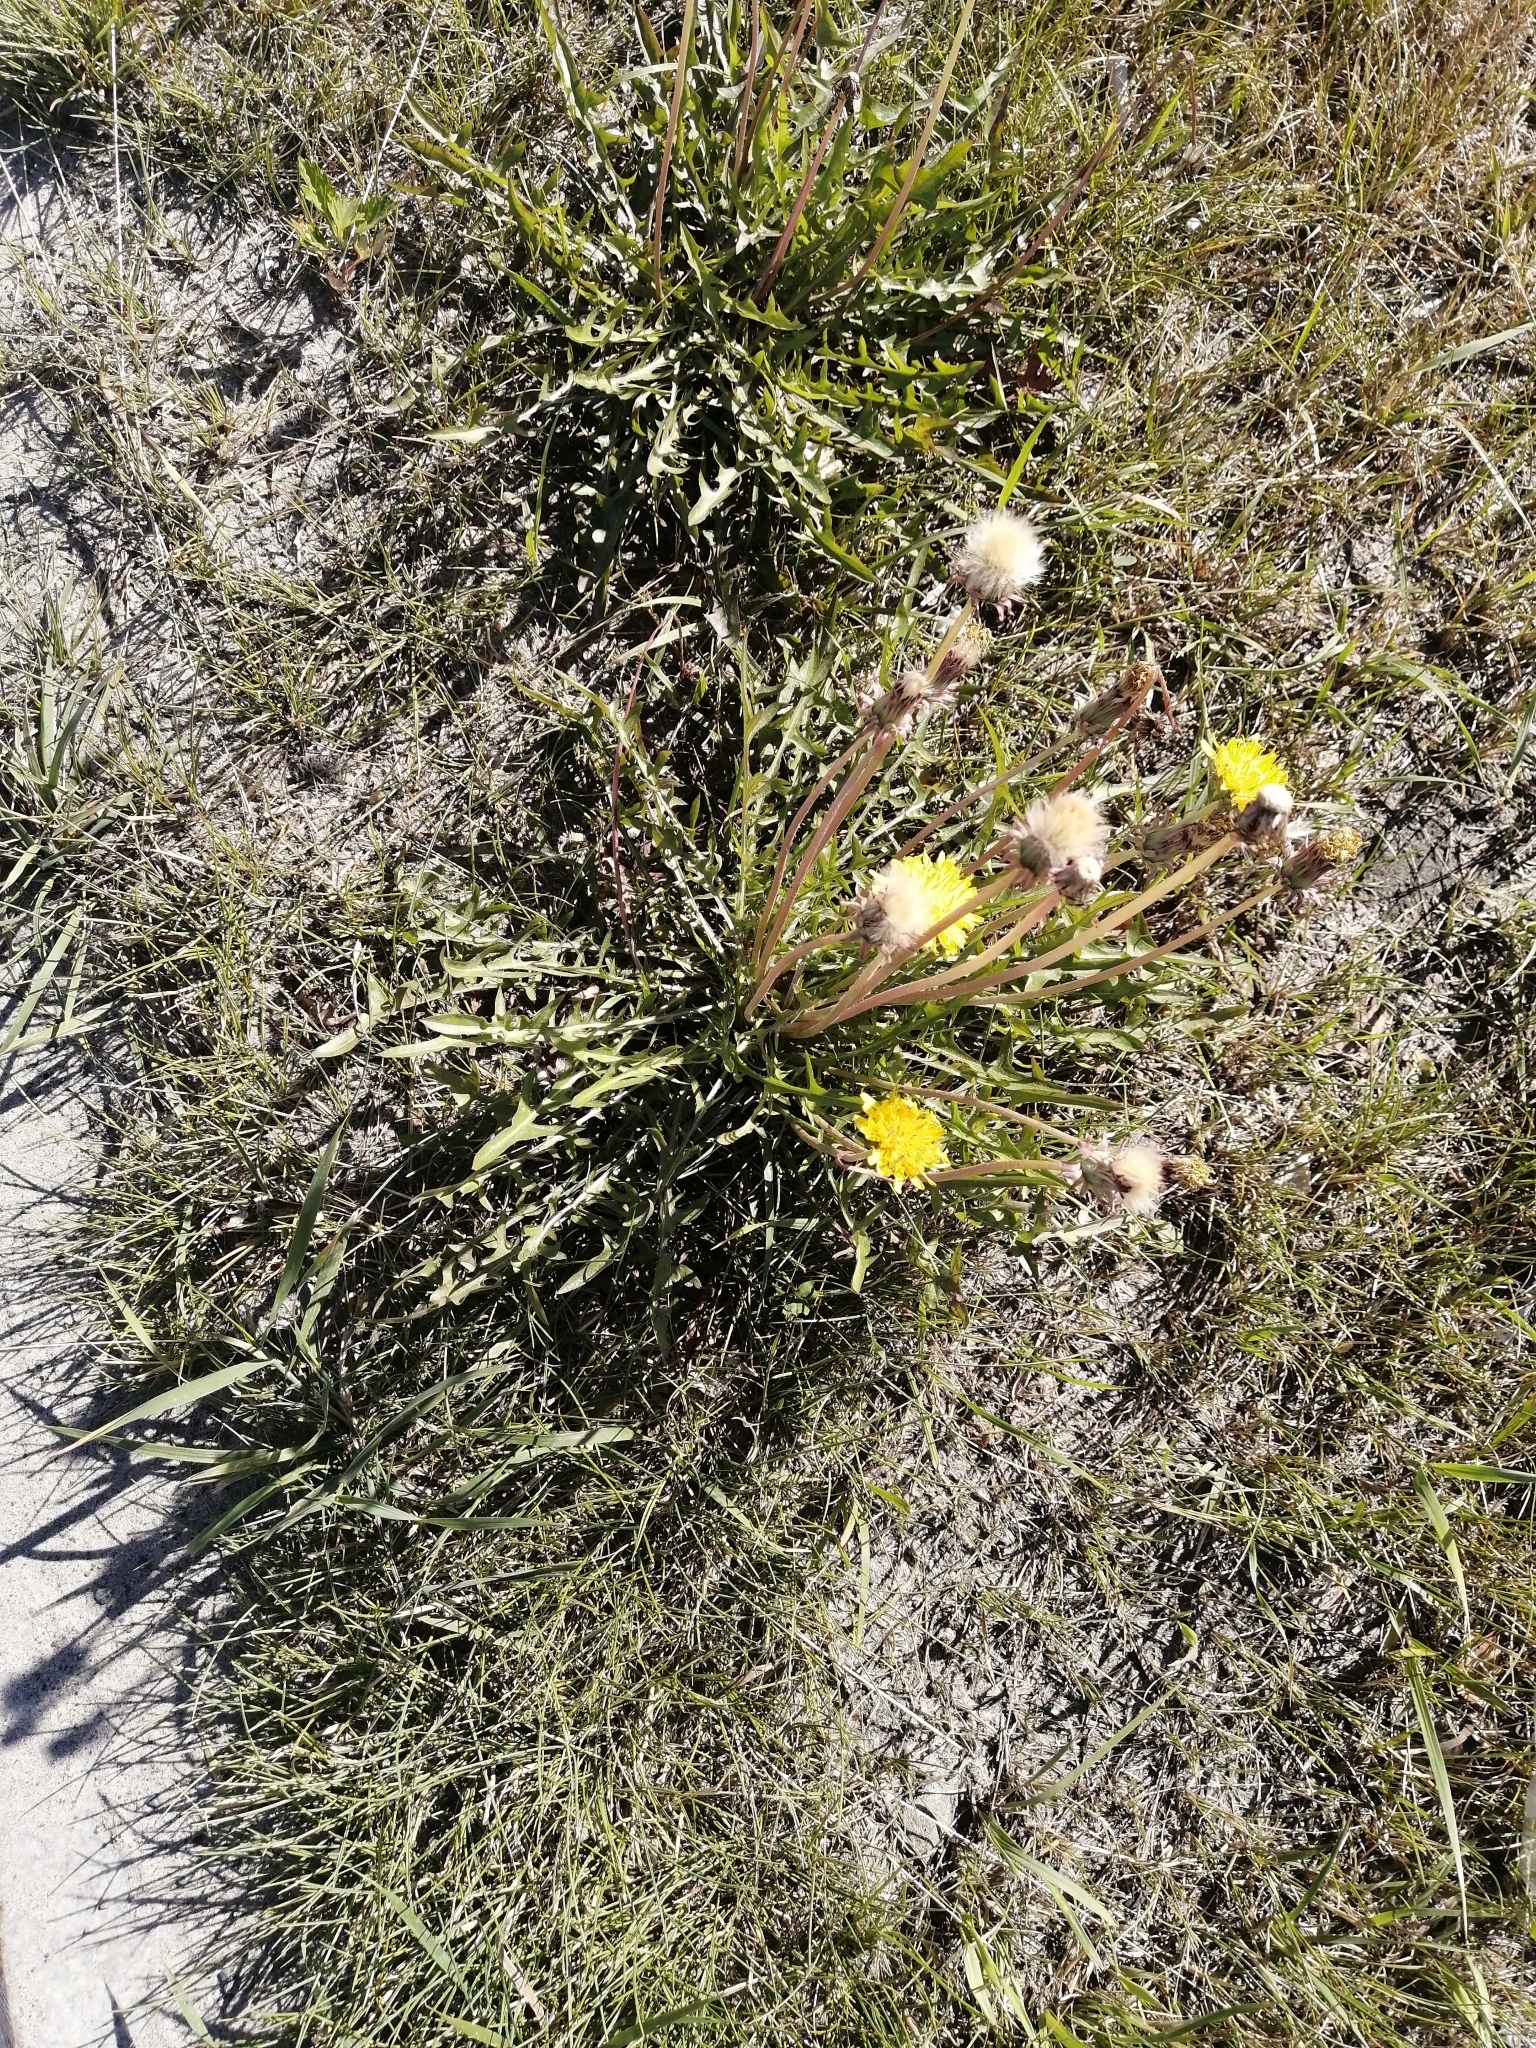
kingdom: Plantae
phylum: Tracheophyta
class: Magnoliopsida
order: Asterales
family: Asteraceae
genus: Taraxacum
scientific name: Taraxacum officinale
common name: Common dandelion
